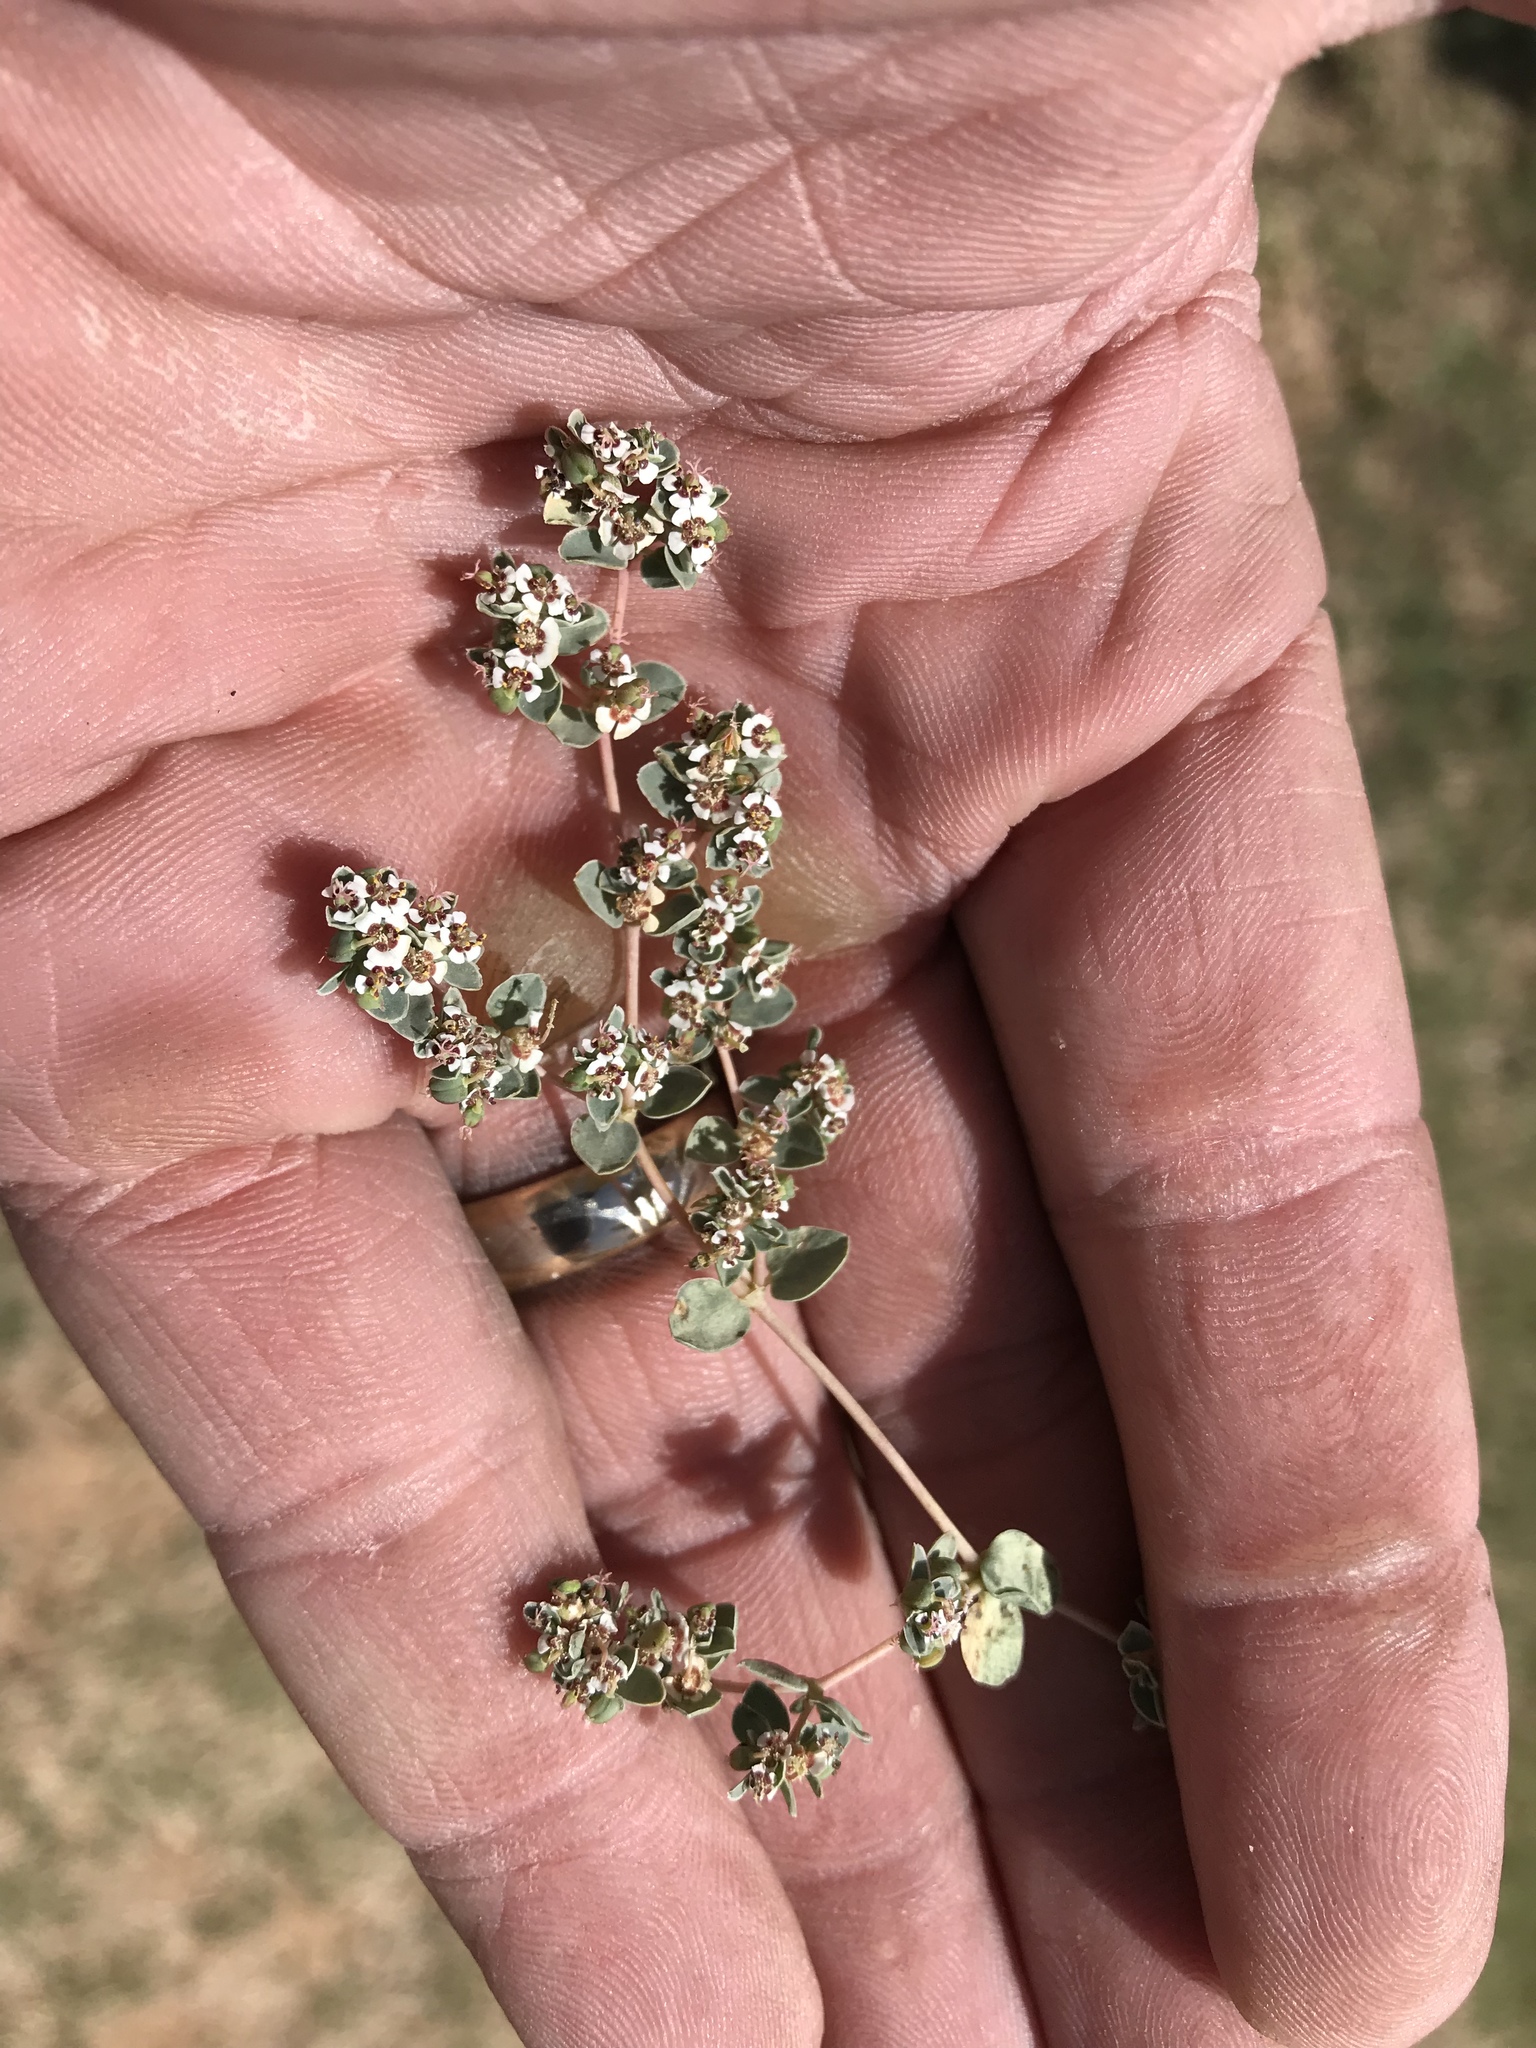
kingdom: Plantae
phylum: Tracheophyta
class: Magnoliopsida
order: Malpighiales
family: Euphorbiaceae
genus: Euphorbia
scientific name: Euphorbia albomarginata
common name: Whitemargin sandmat
